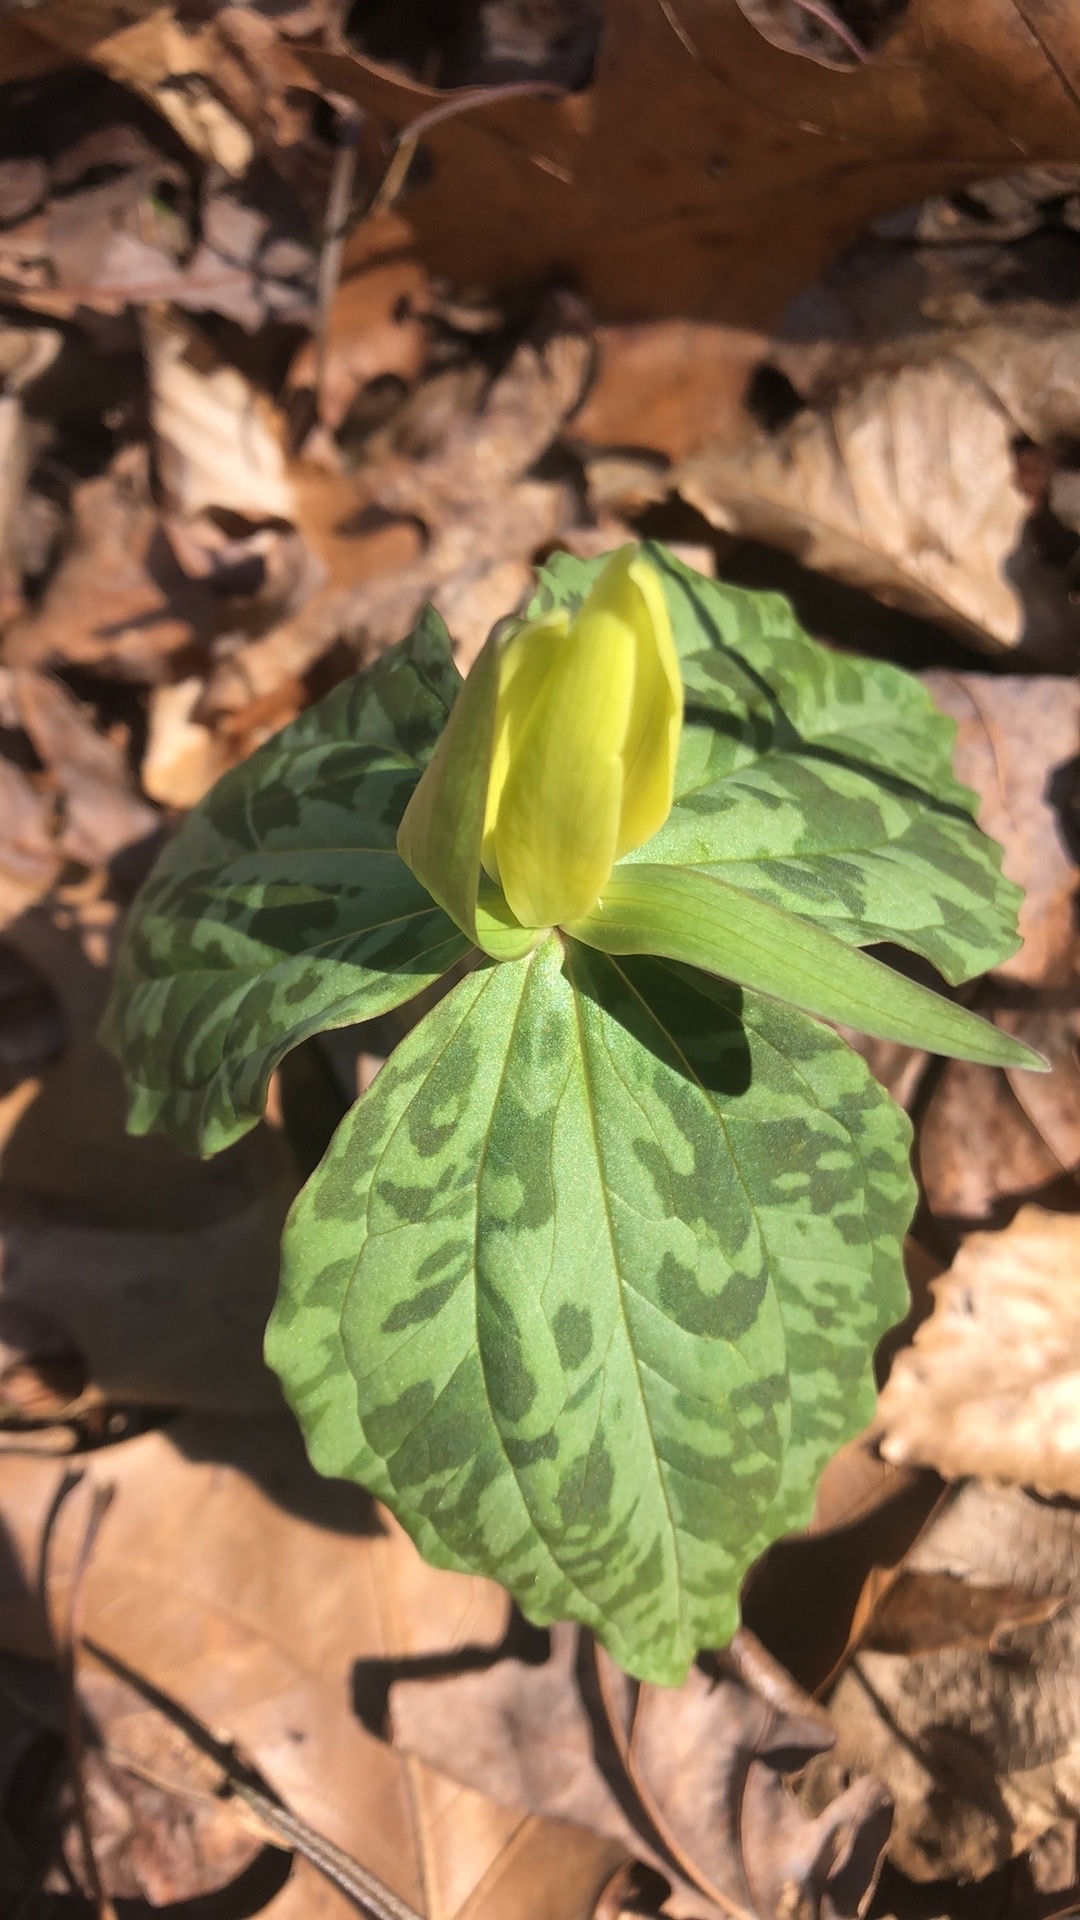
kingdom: Plantae
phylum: Tracheophyta
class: Liliopsida
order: Liliales
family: Melanthiaceae
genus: Trillium
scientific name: Trillium luteum
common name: Wax trillium
